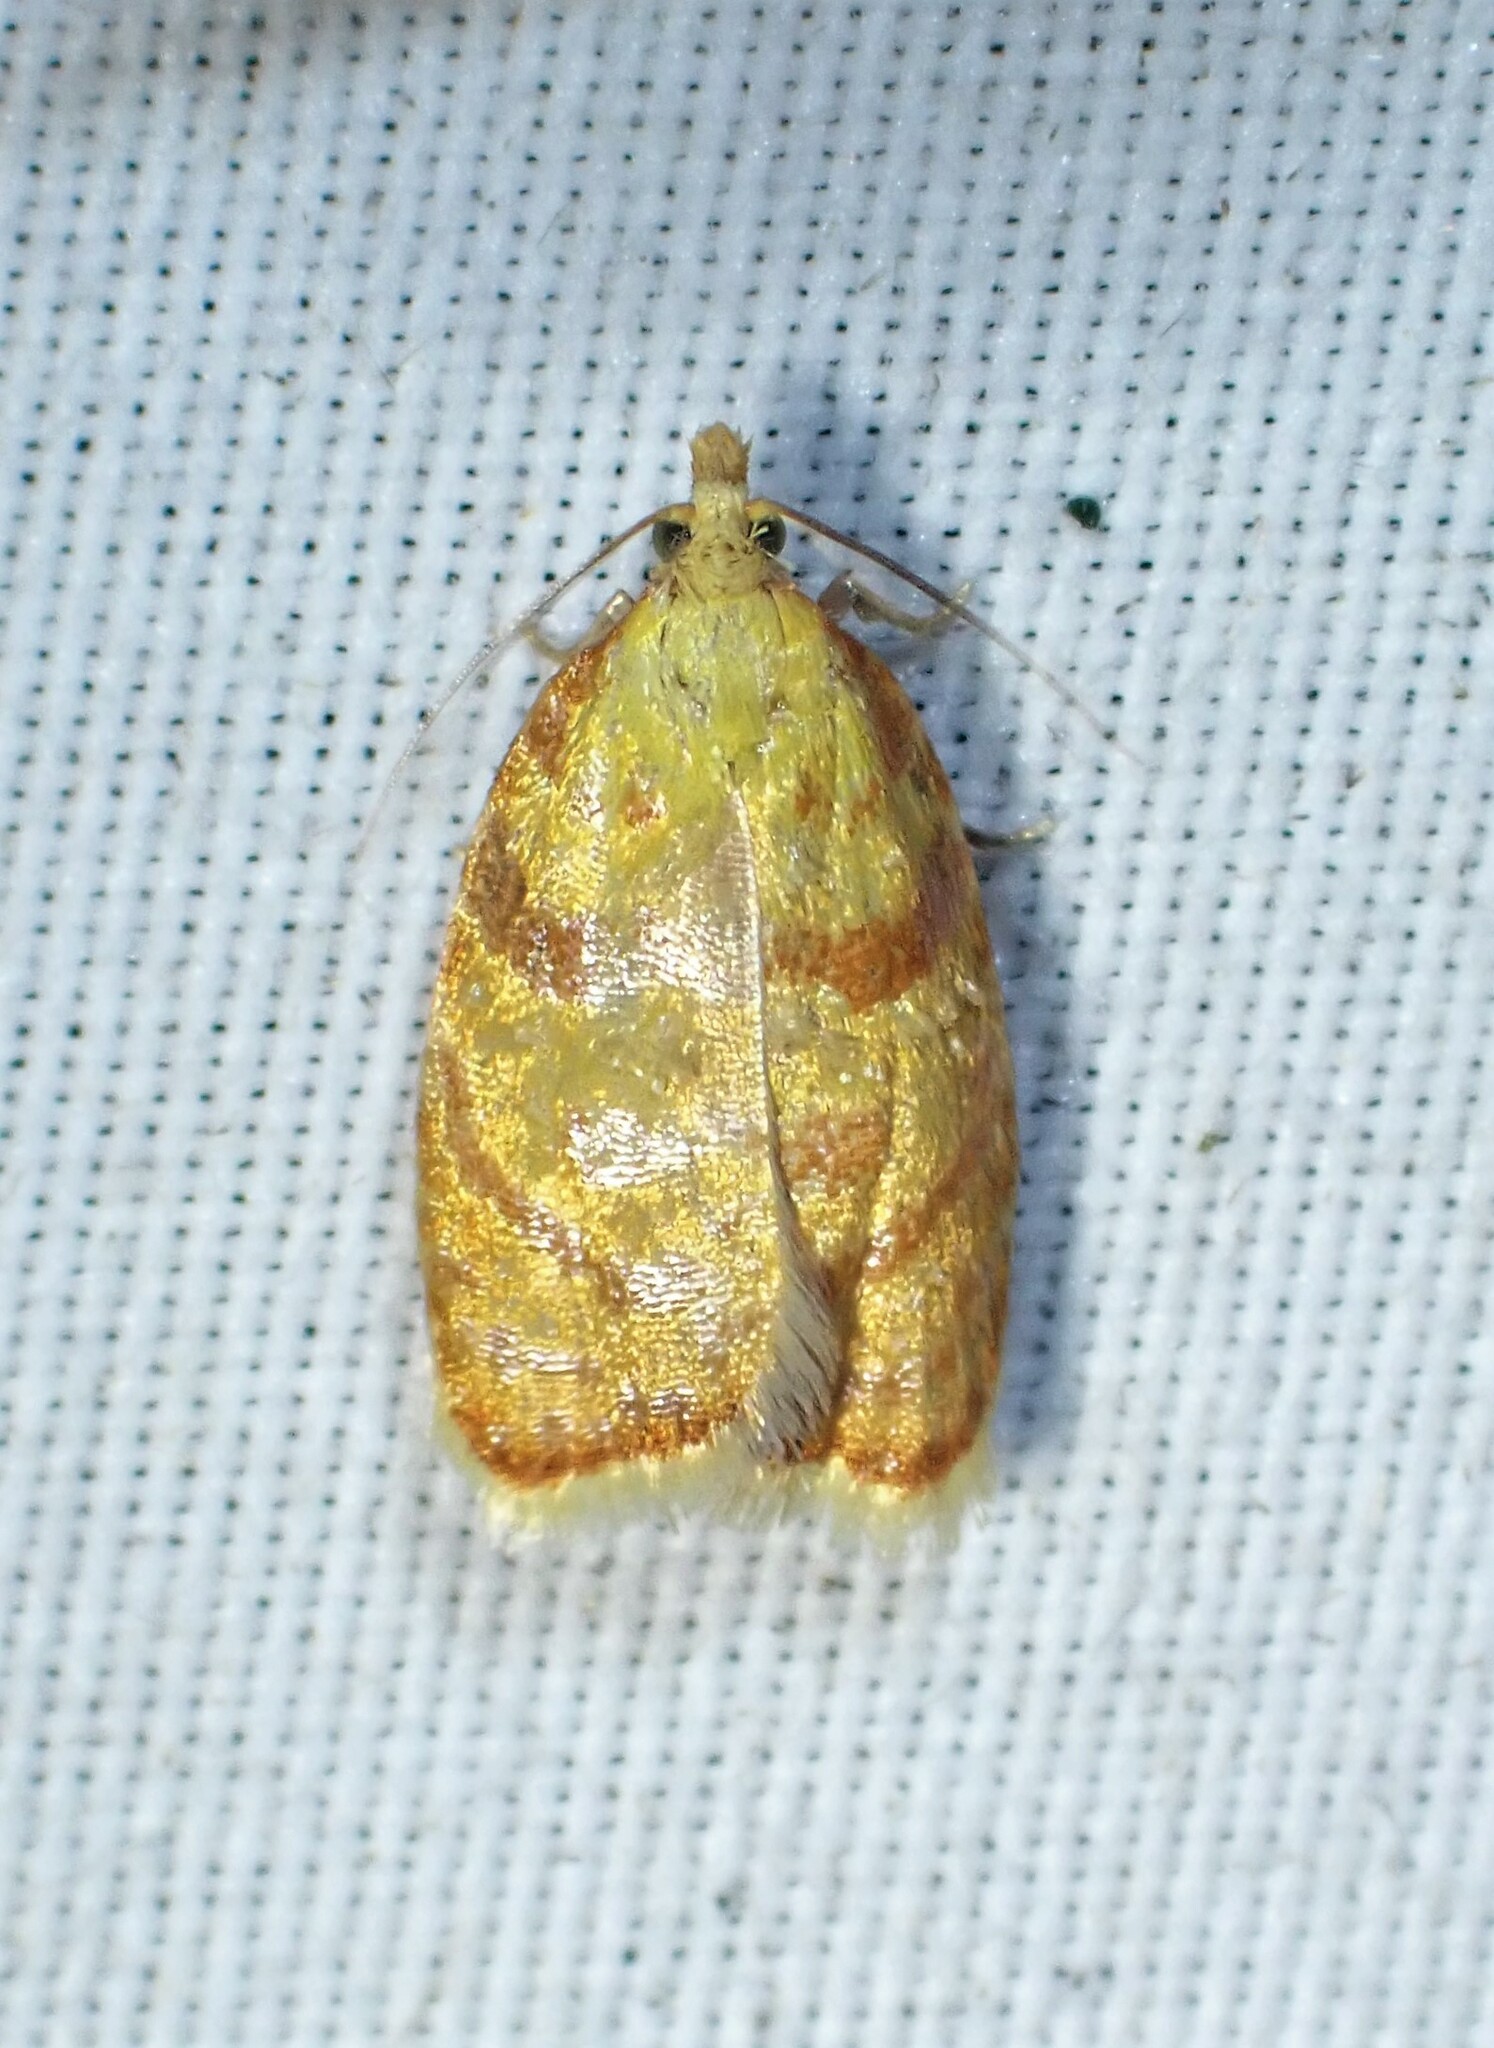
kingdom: Animalia
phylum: Arthropoda
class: Insecta
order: Lepidoptera
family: Tortricidae
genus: Acleris
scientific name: Acleris curvalana
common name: Blueberry leaftier moth
